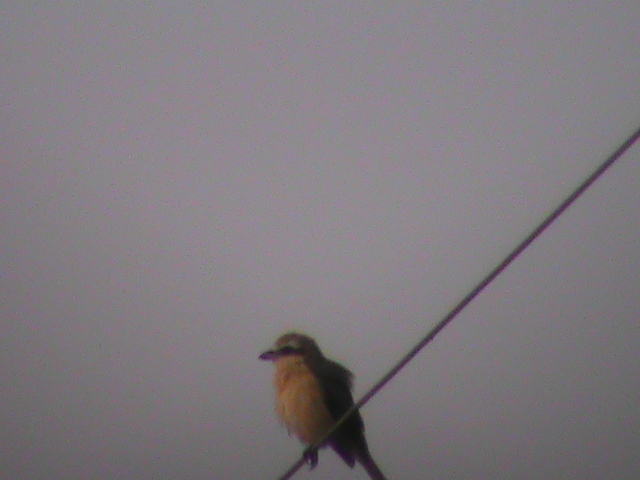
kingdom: Animalia
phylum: Chordata
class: Aves
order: Passeriformes
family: Laniidae
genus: Lanius
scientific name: Lanius cristatus
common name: Brown shrike
